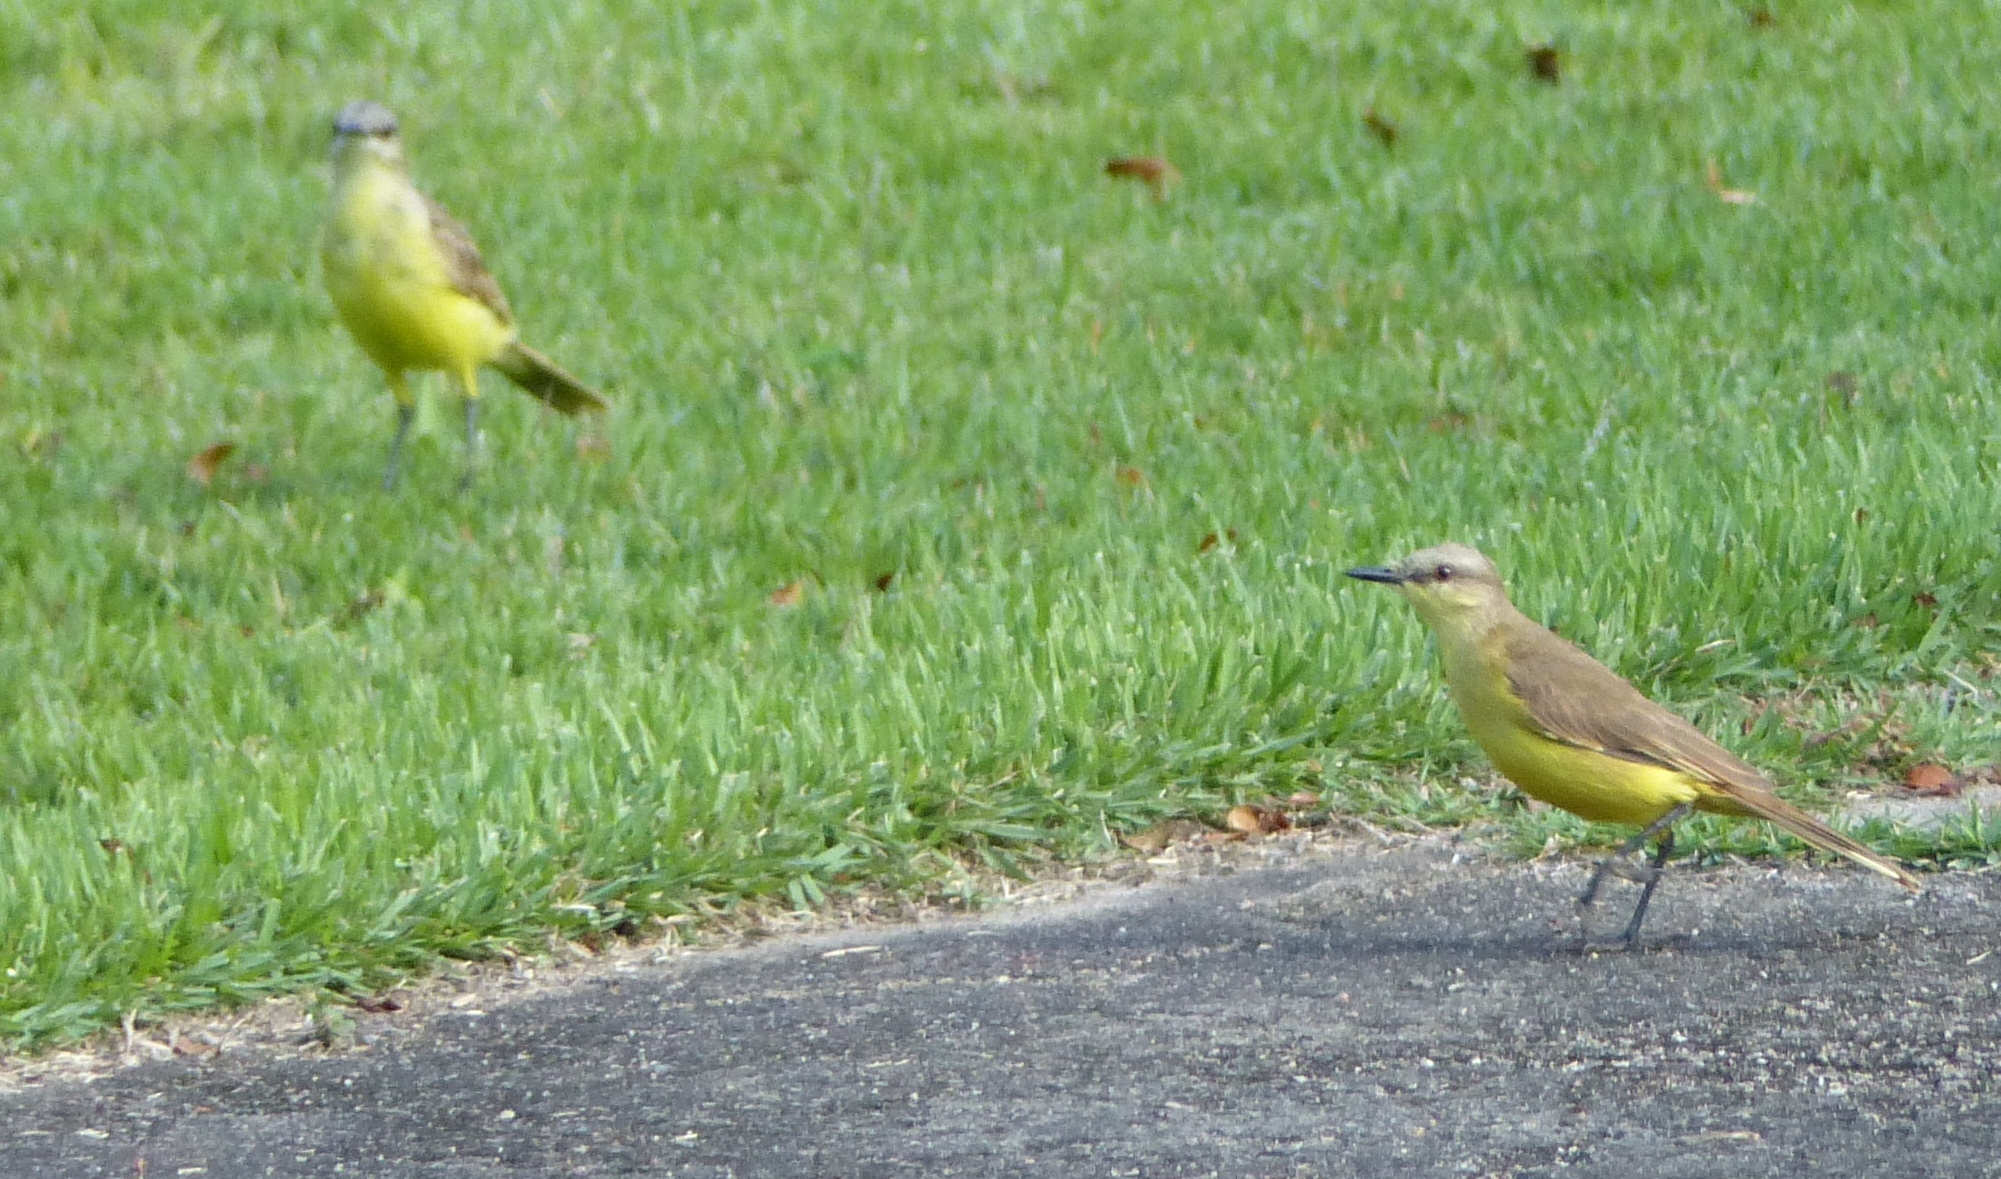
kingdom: Animalia
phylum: Chordata
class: Aves
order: Passeriformes
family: Tyrannidae
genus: Machetornis
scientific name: Machetornis rixosa
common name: Cattle tyrant
